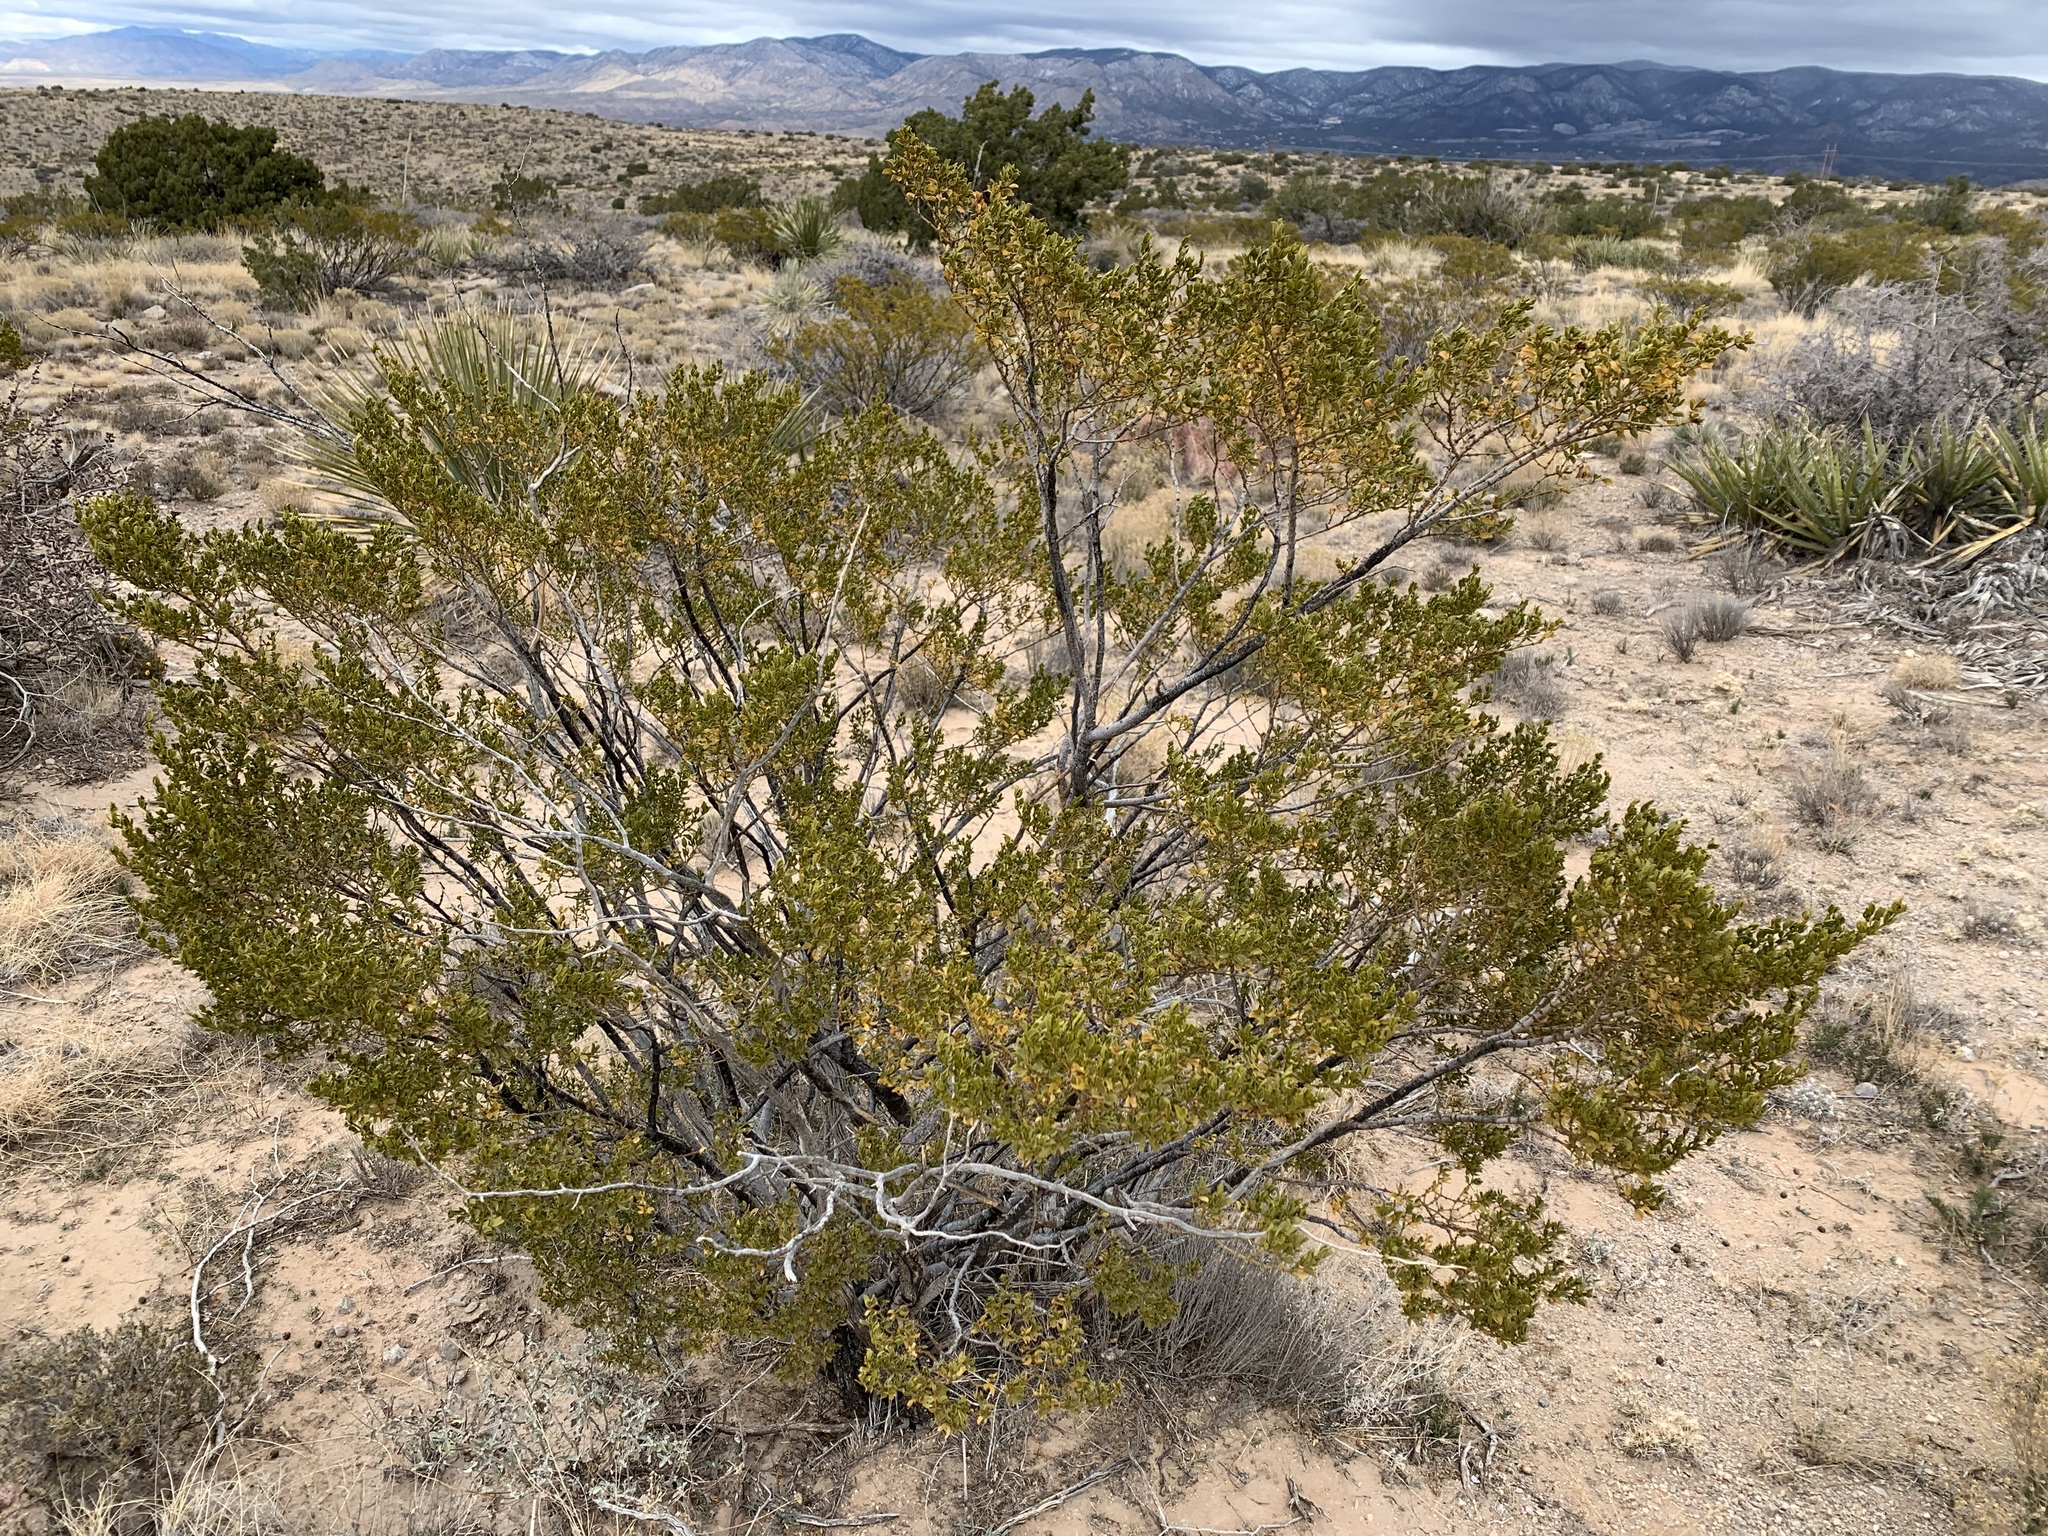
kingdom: Plantae
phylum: Tracheophyta
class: Magnoliopsida
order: Zygophyllales
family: Zygophyllaceae
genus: Larrea
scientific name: Larrea tridentata
